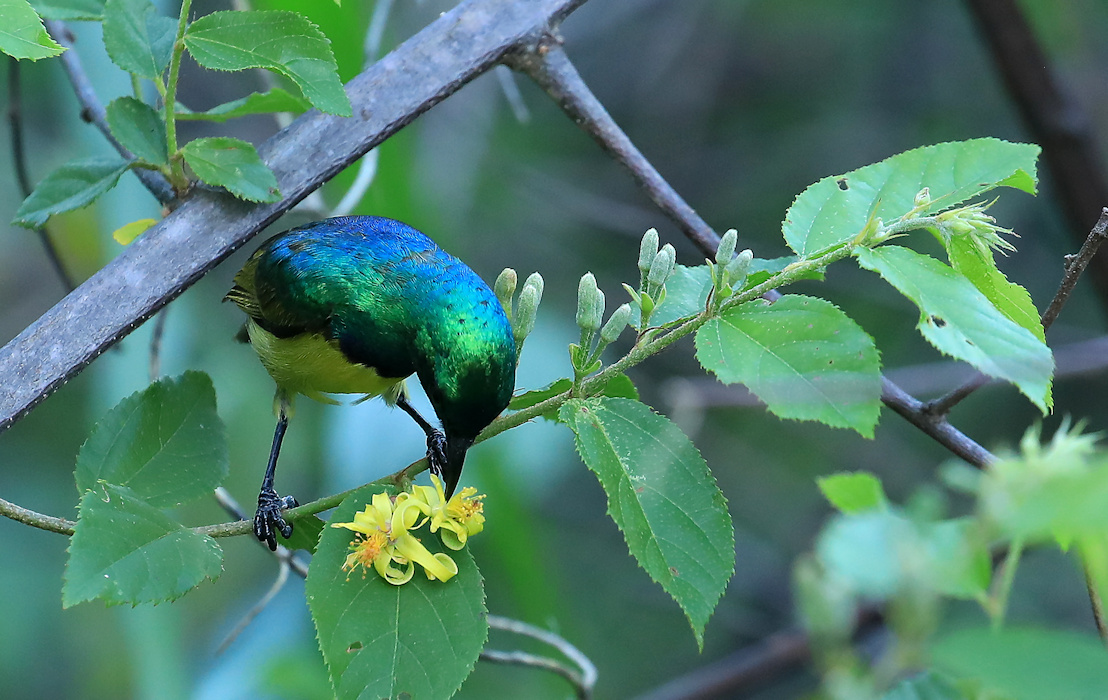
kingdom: Animalia
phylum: Chordata
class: Aves
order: Passeriformes
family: Nectariniidae
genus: Hedydipna
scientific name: Hedydipna collaris
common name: Collared sunbird
